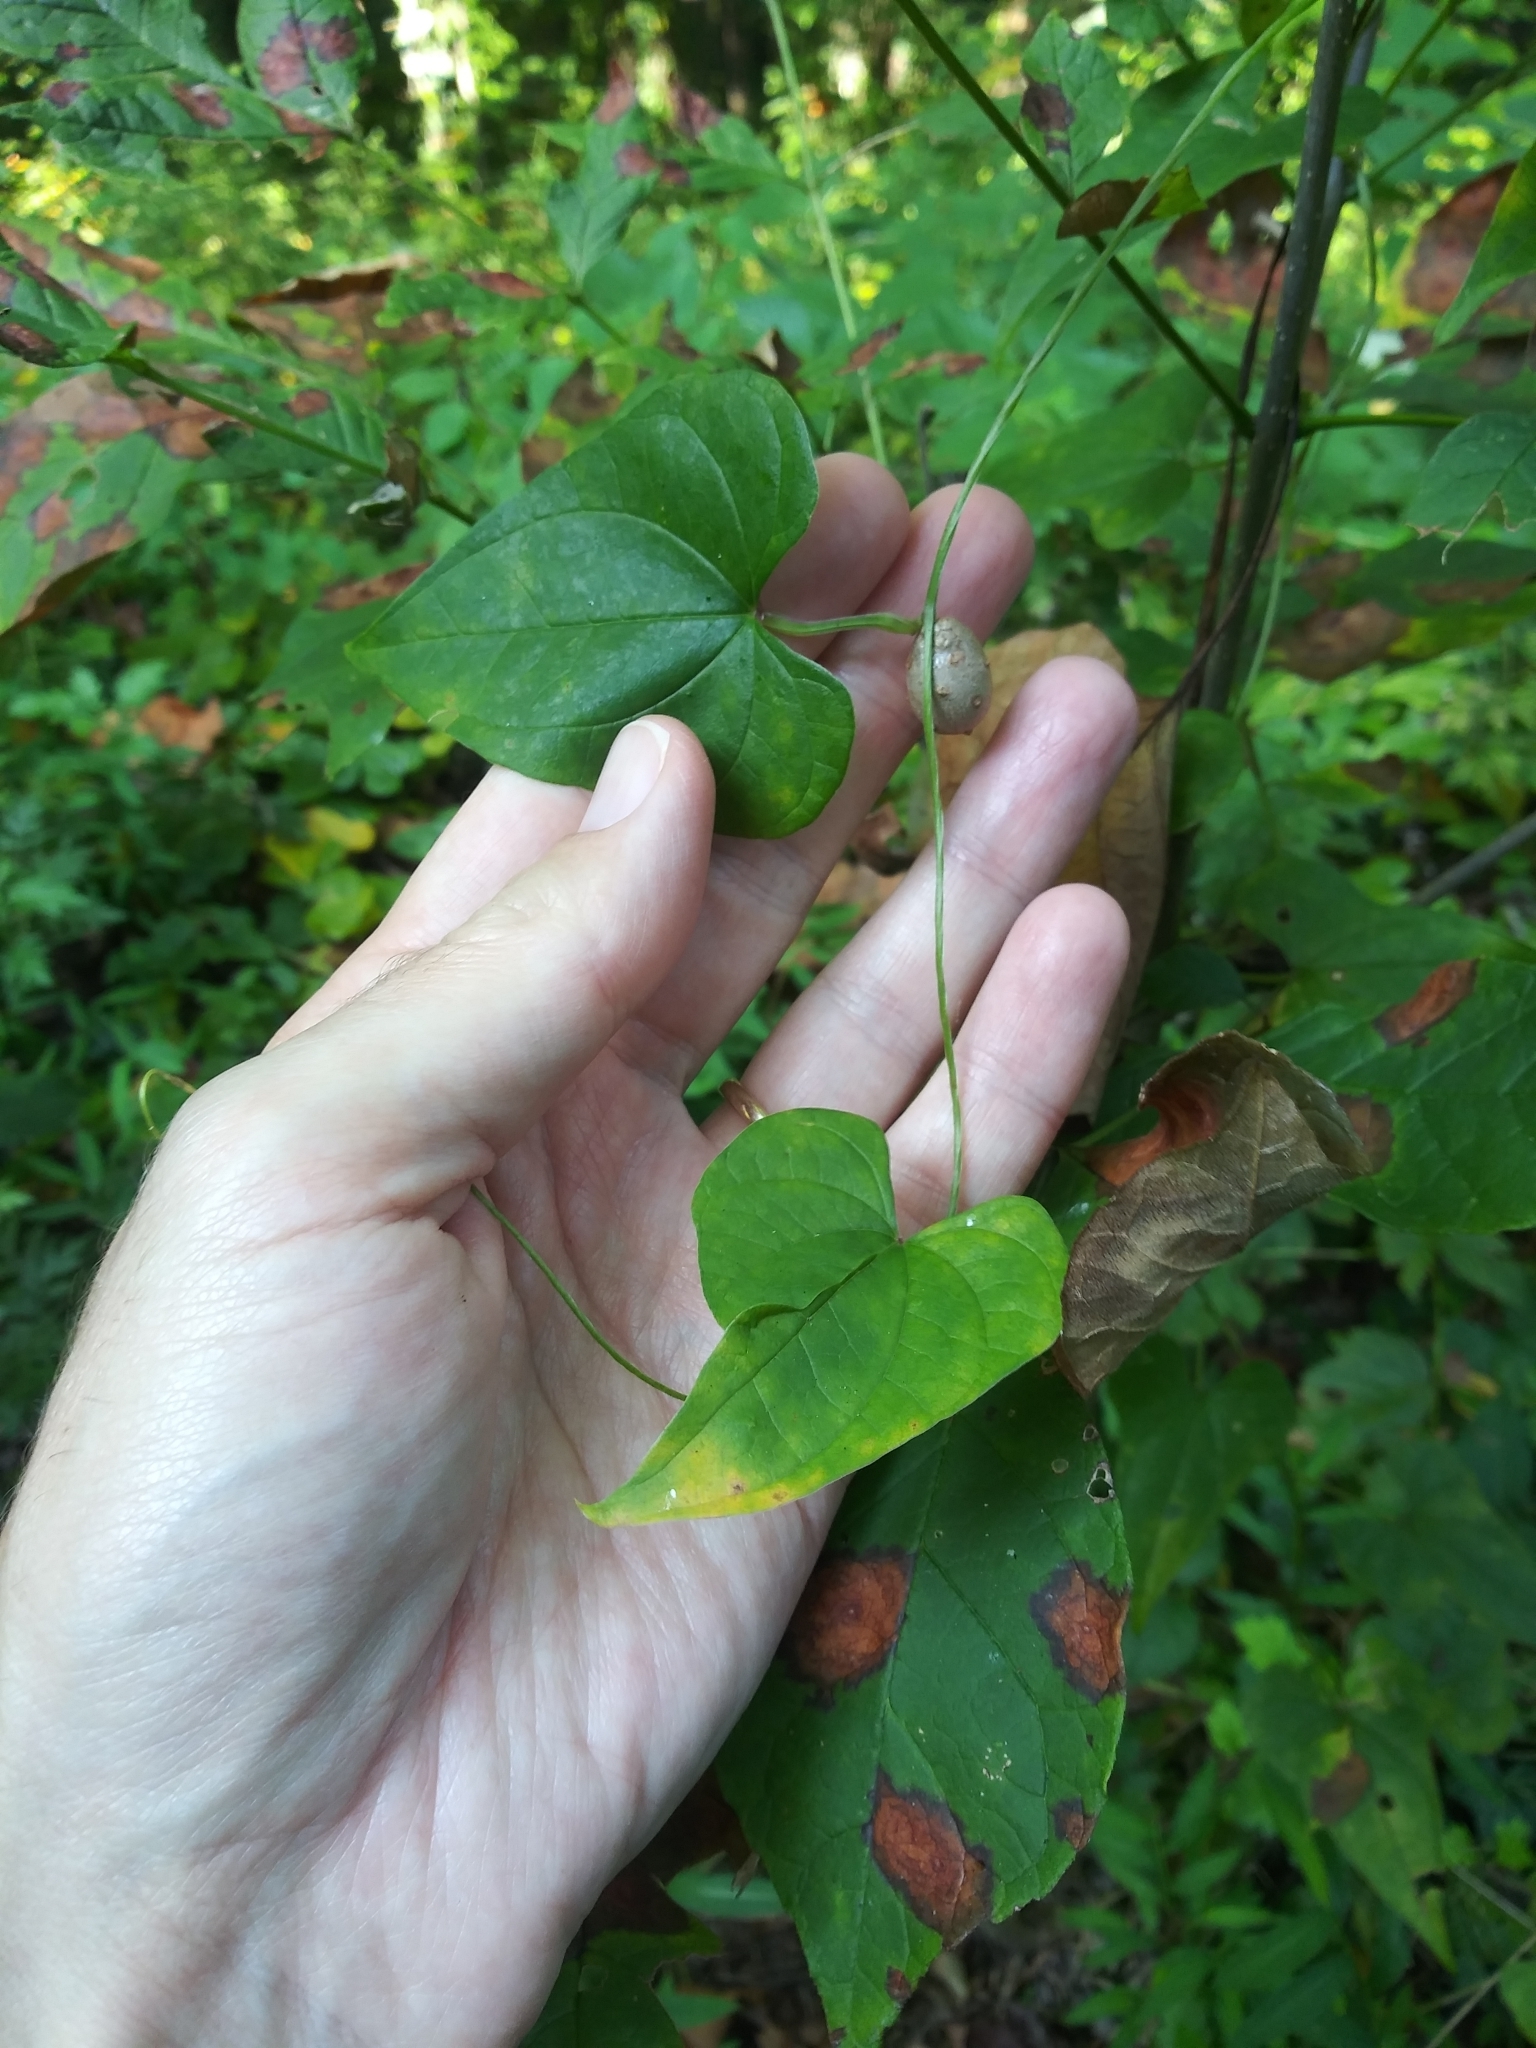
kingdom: Plantae
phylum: Tracheophyta
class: Liliopsida
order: Dioscoreales
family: Dioscoreaceae
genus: Dioscorea
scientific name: Dioscorea polystachya
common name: Chinese yam
